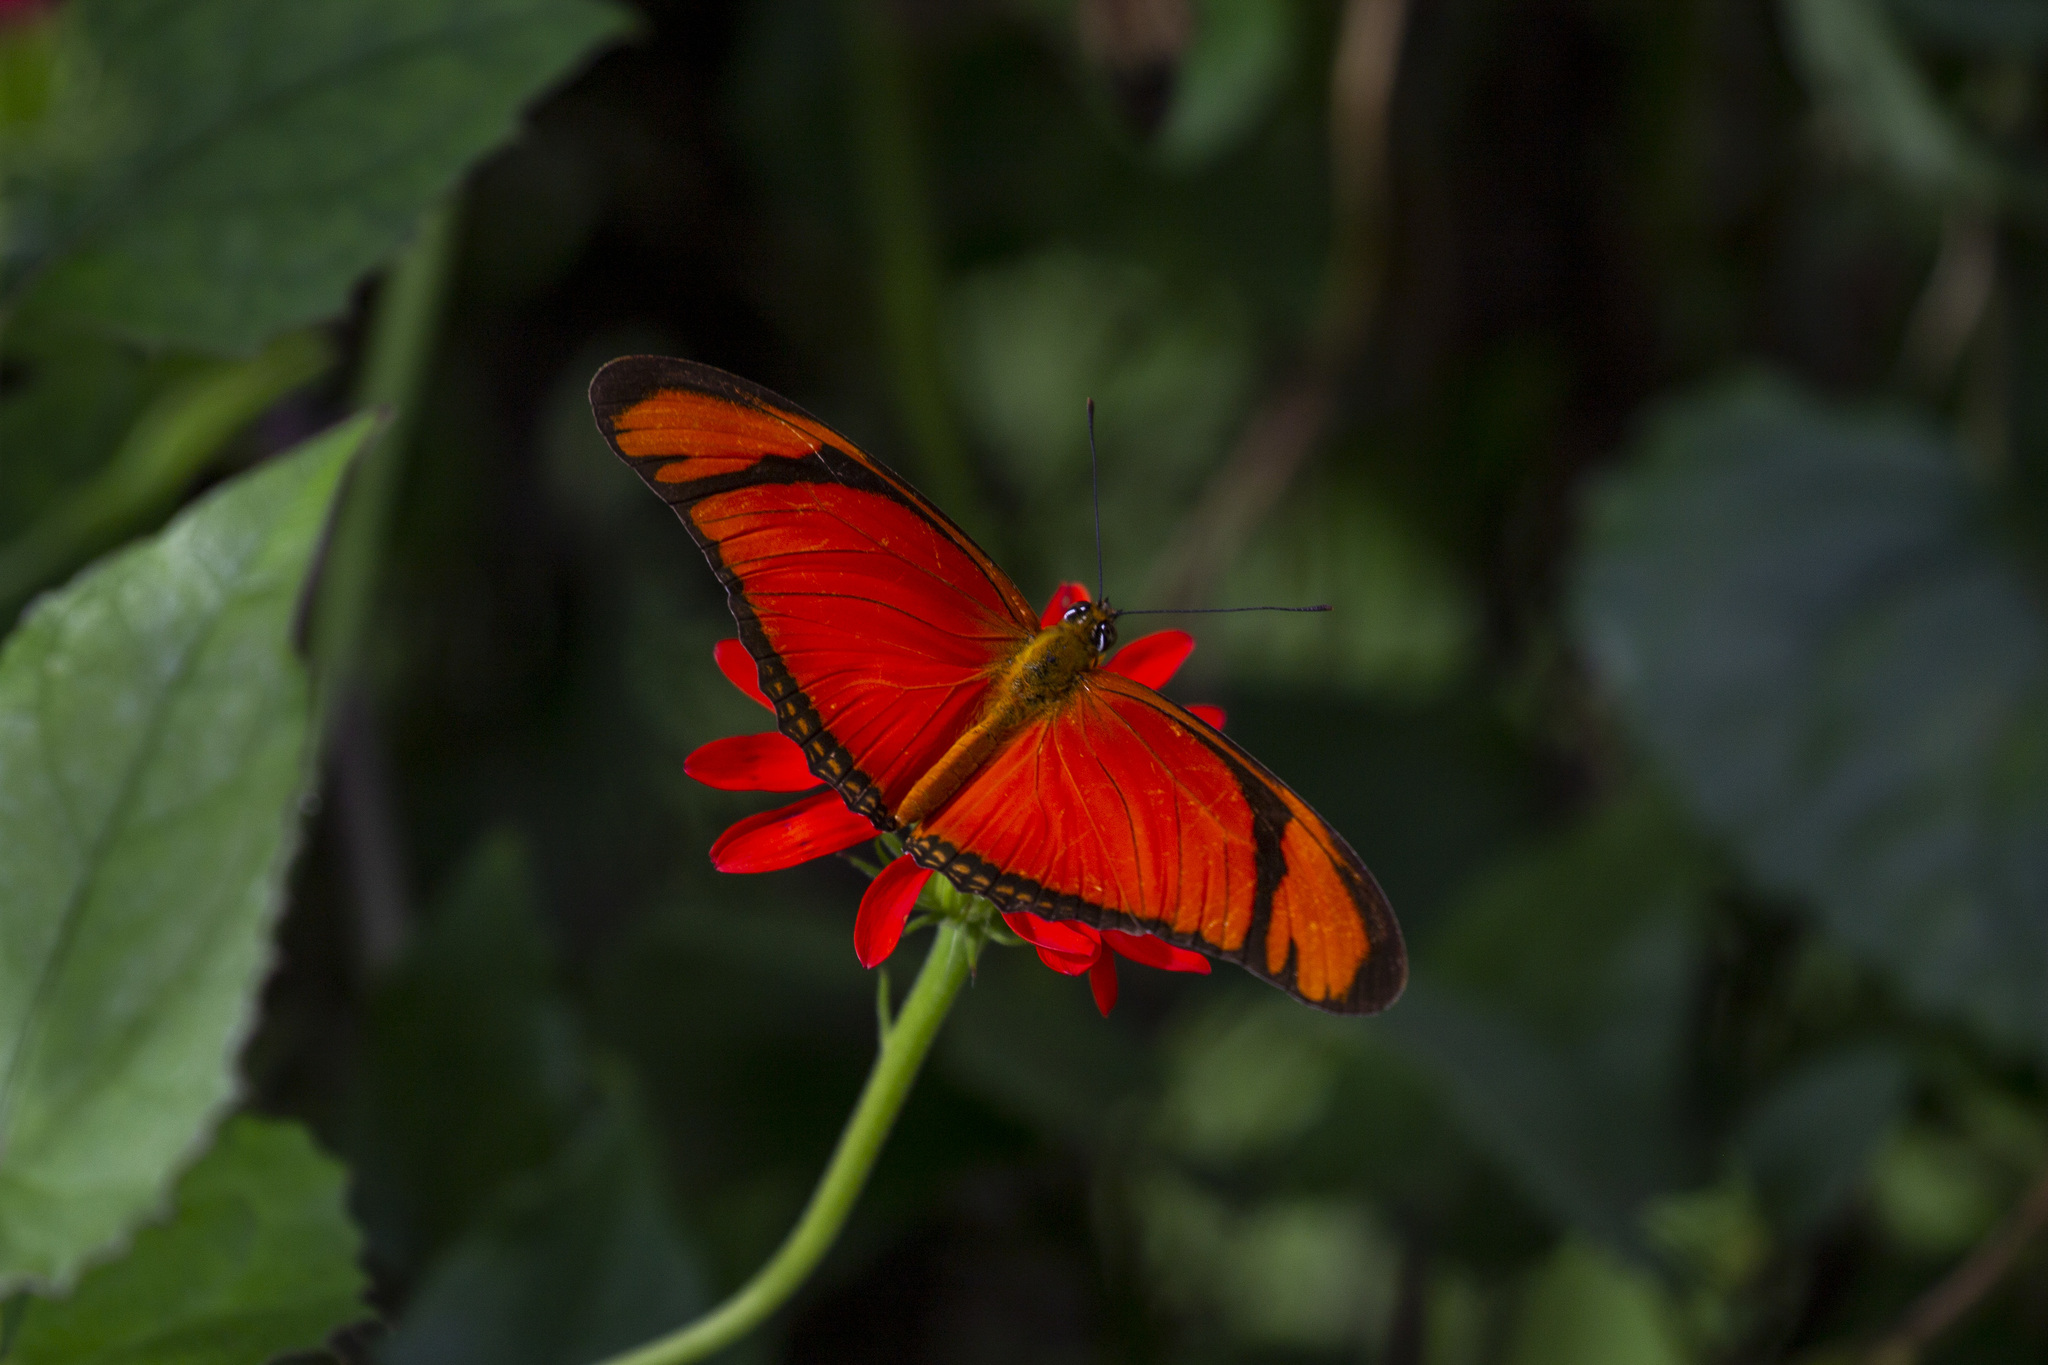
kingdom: Animalia
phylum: Arthropoda
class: Insecta
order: Lepidoptera
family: Nymphalidae
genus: Dryas
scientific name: Dryas iulia
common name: Flambeau
